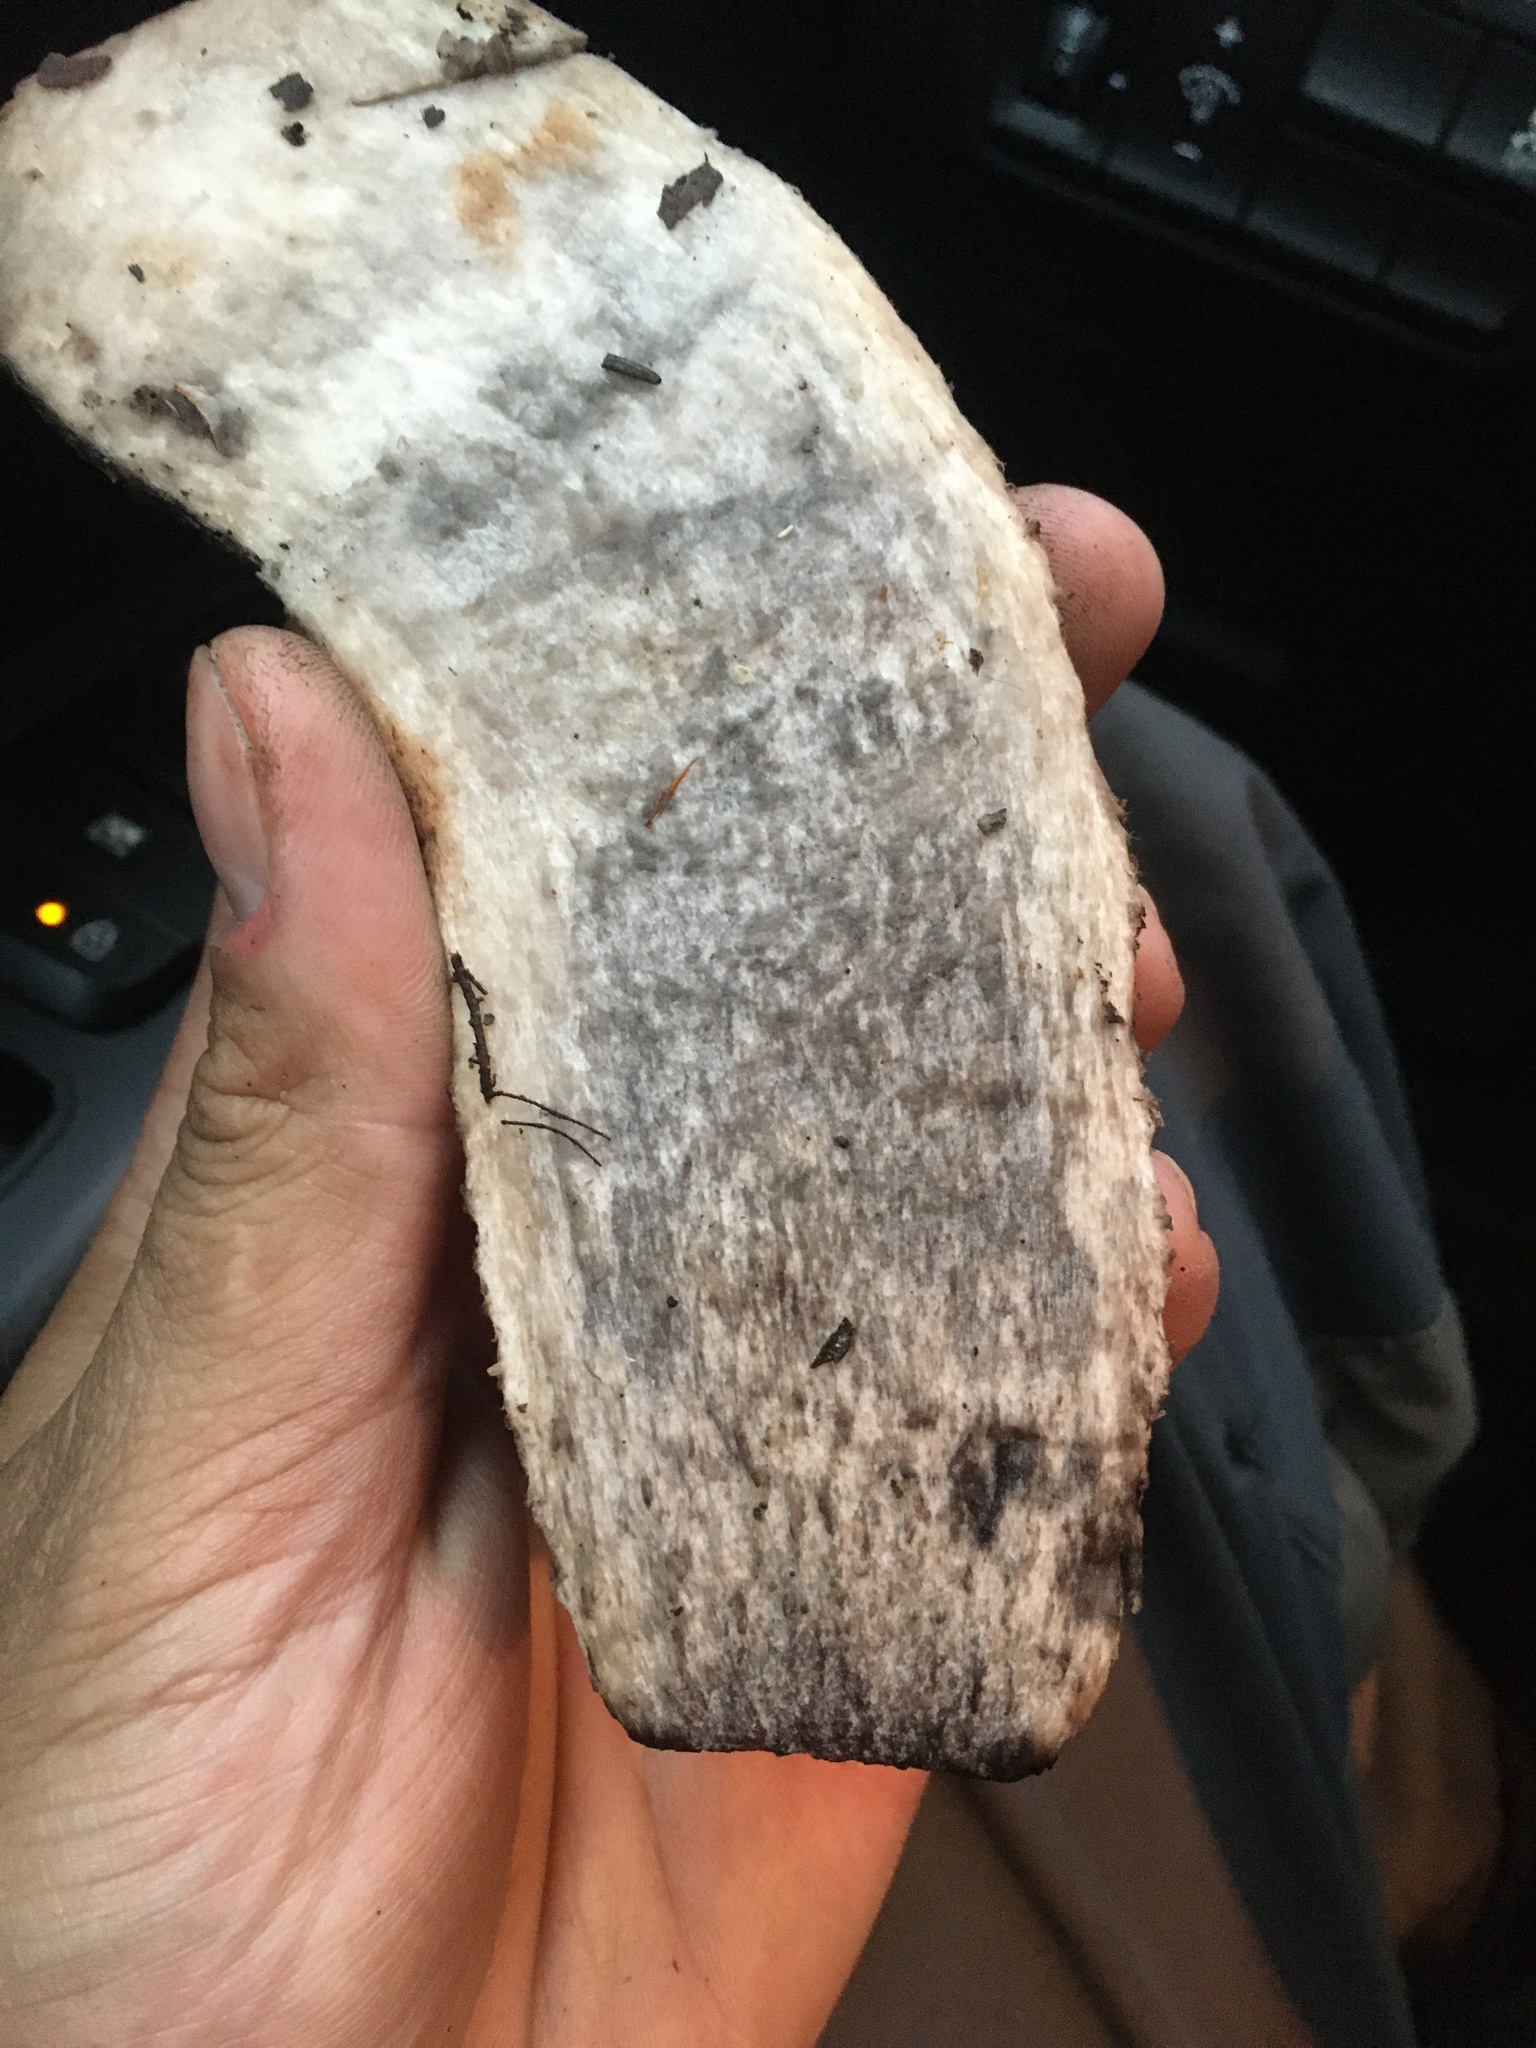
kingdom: Fungi
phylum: Basidiomycota
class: Agaricomycetes
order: Boletales
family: Boletaceae
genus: Leccinum
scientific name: Leccinum aurantiacum
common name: Orange bolete
